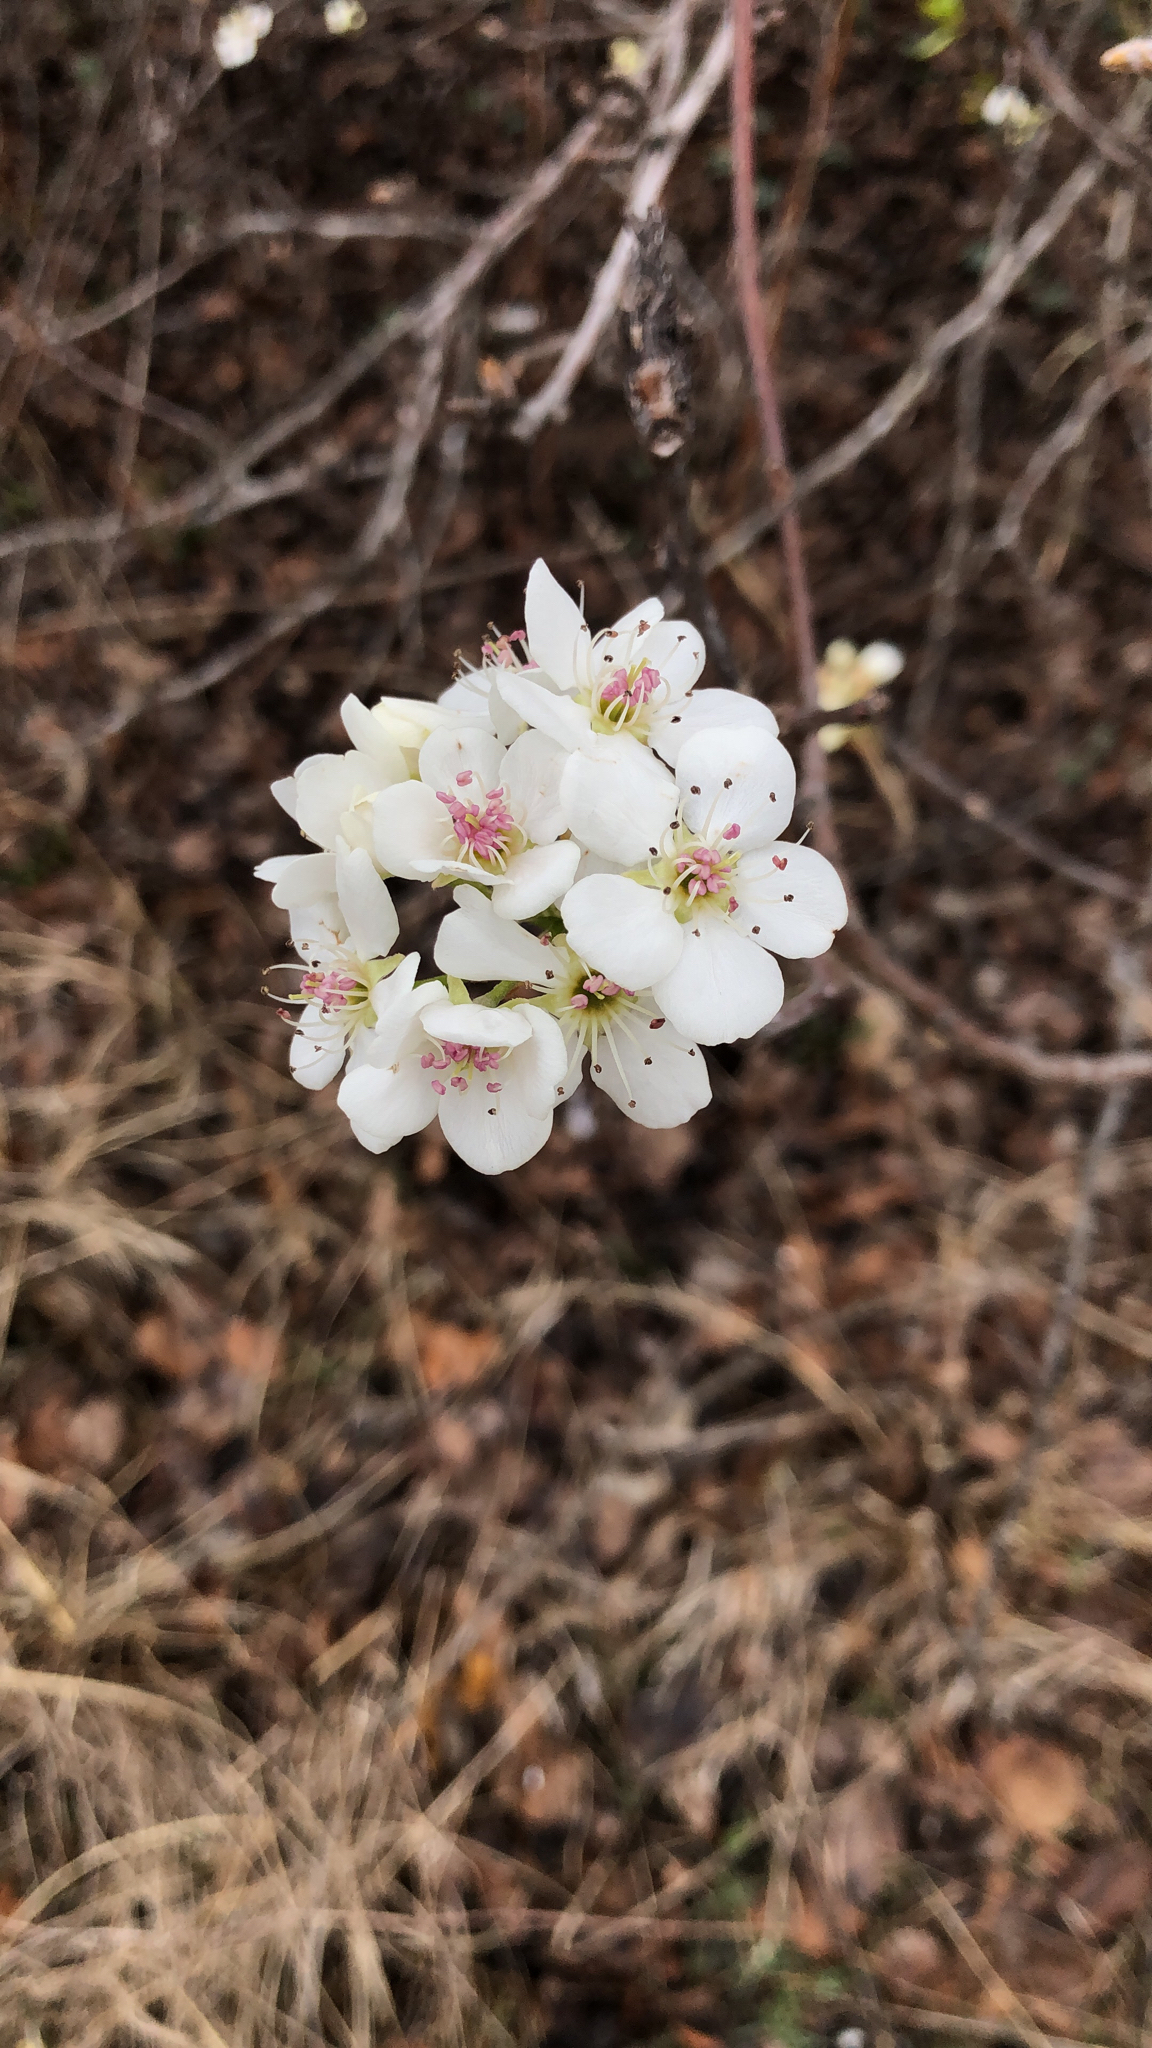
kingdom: Plantae
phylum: Tracheophyta
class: Magnoliopsida
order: Rosales
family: Rosaceae
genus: Pyrus
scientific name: Pyrus calleryana
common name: Callery pear
